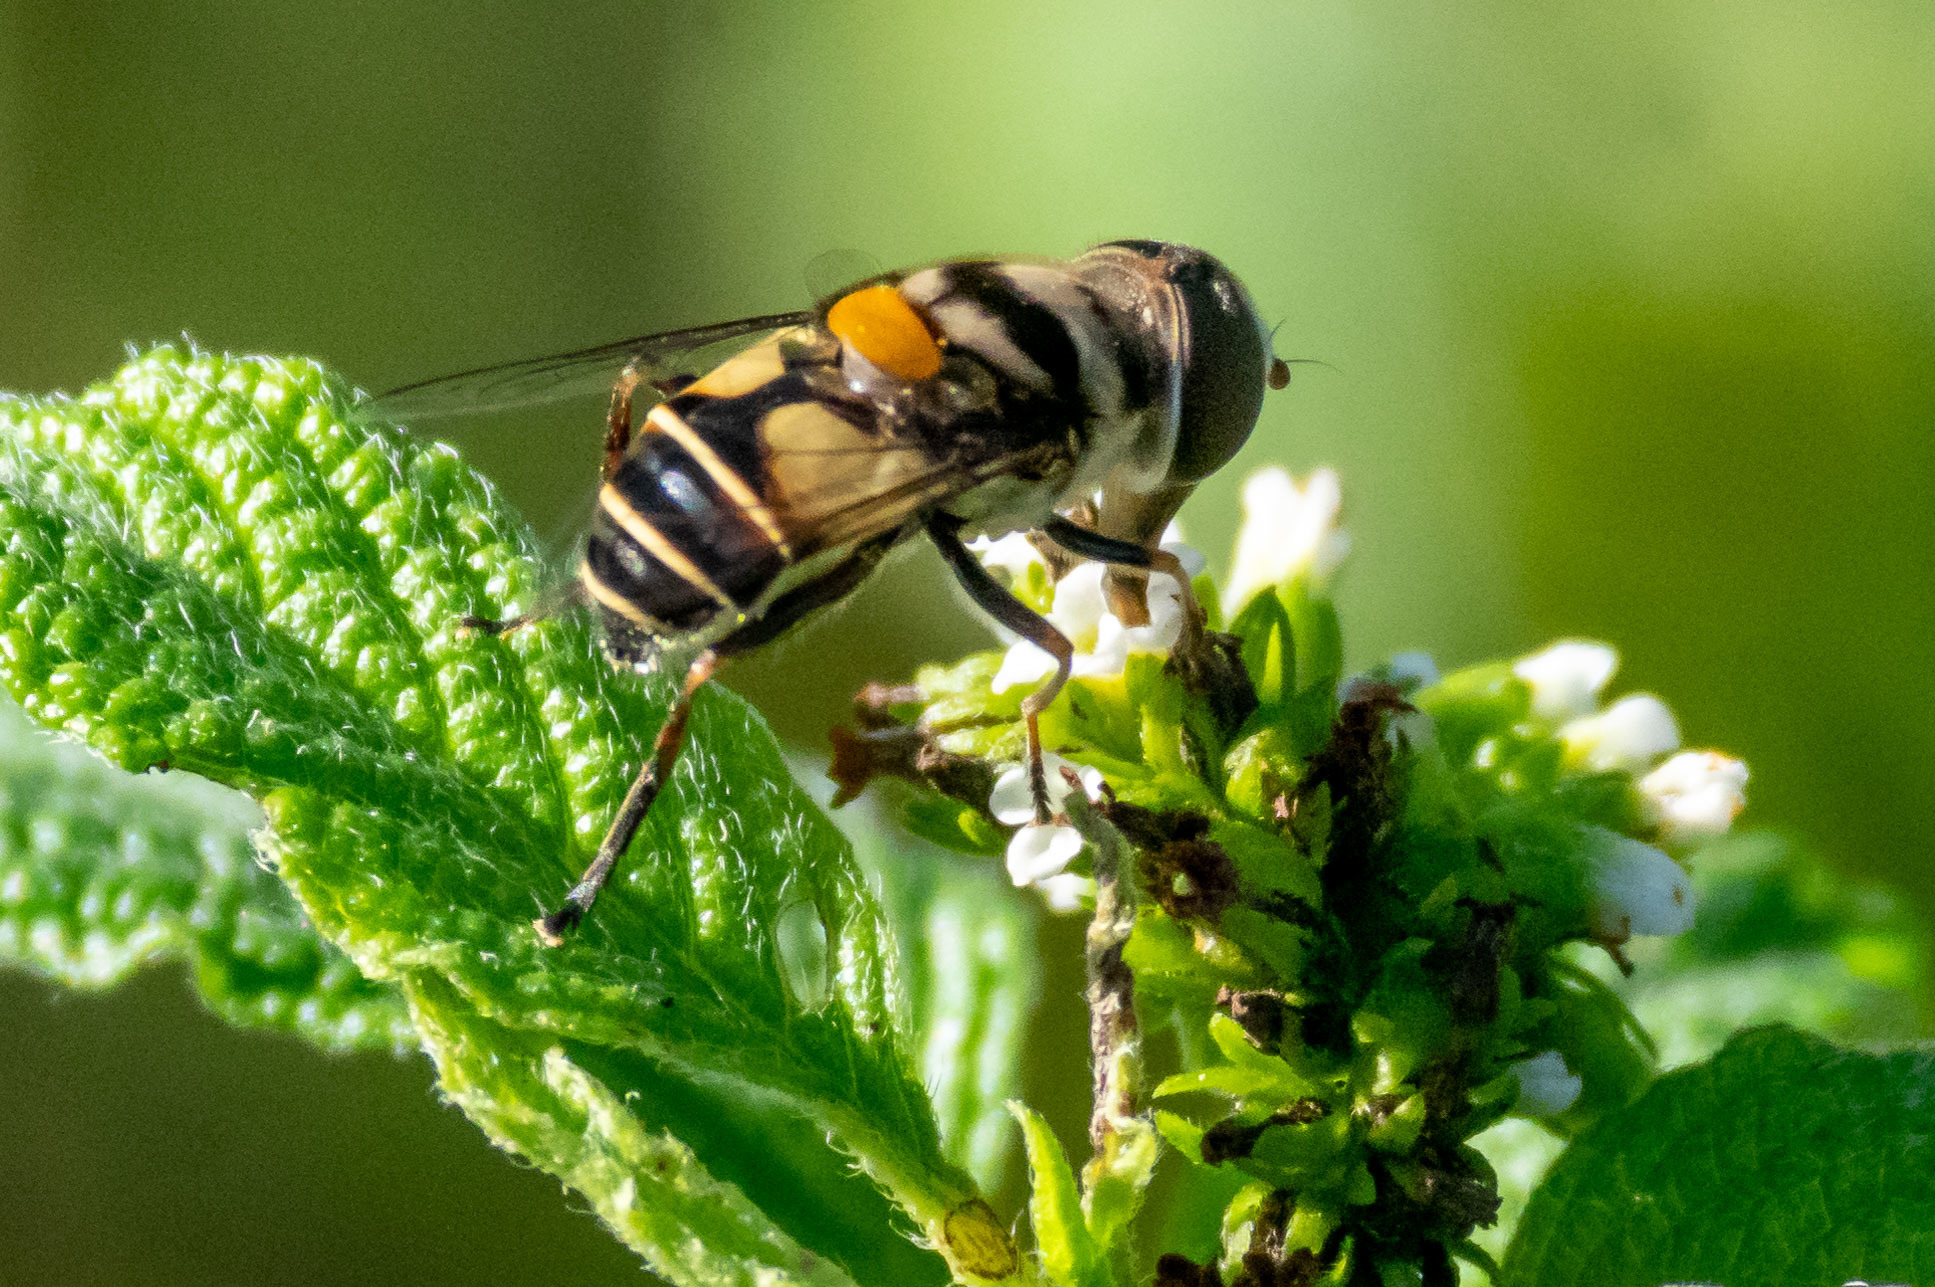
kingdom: Animalia
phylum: Arthropoda
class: Insecta
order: Diptera
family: Syrphidae
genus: Palpada
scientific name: Palpada albifrons
